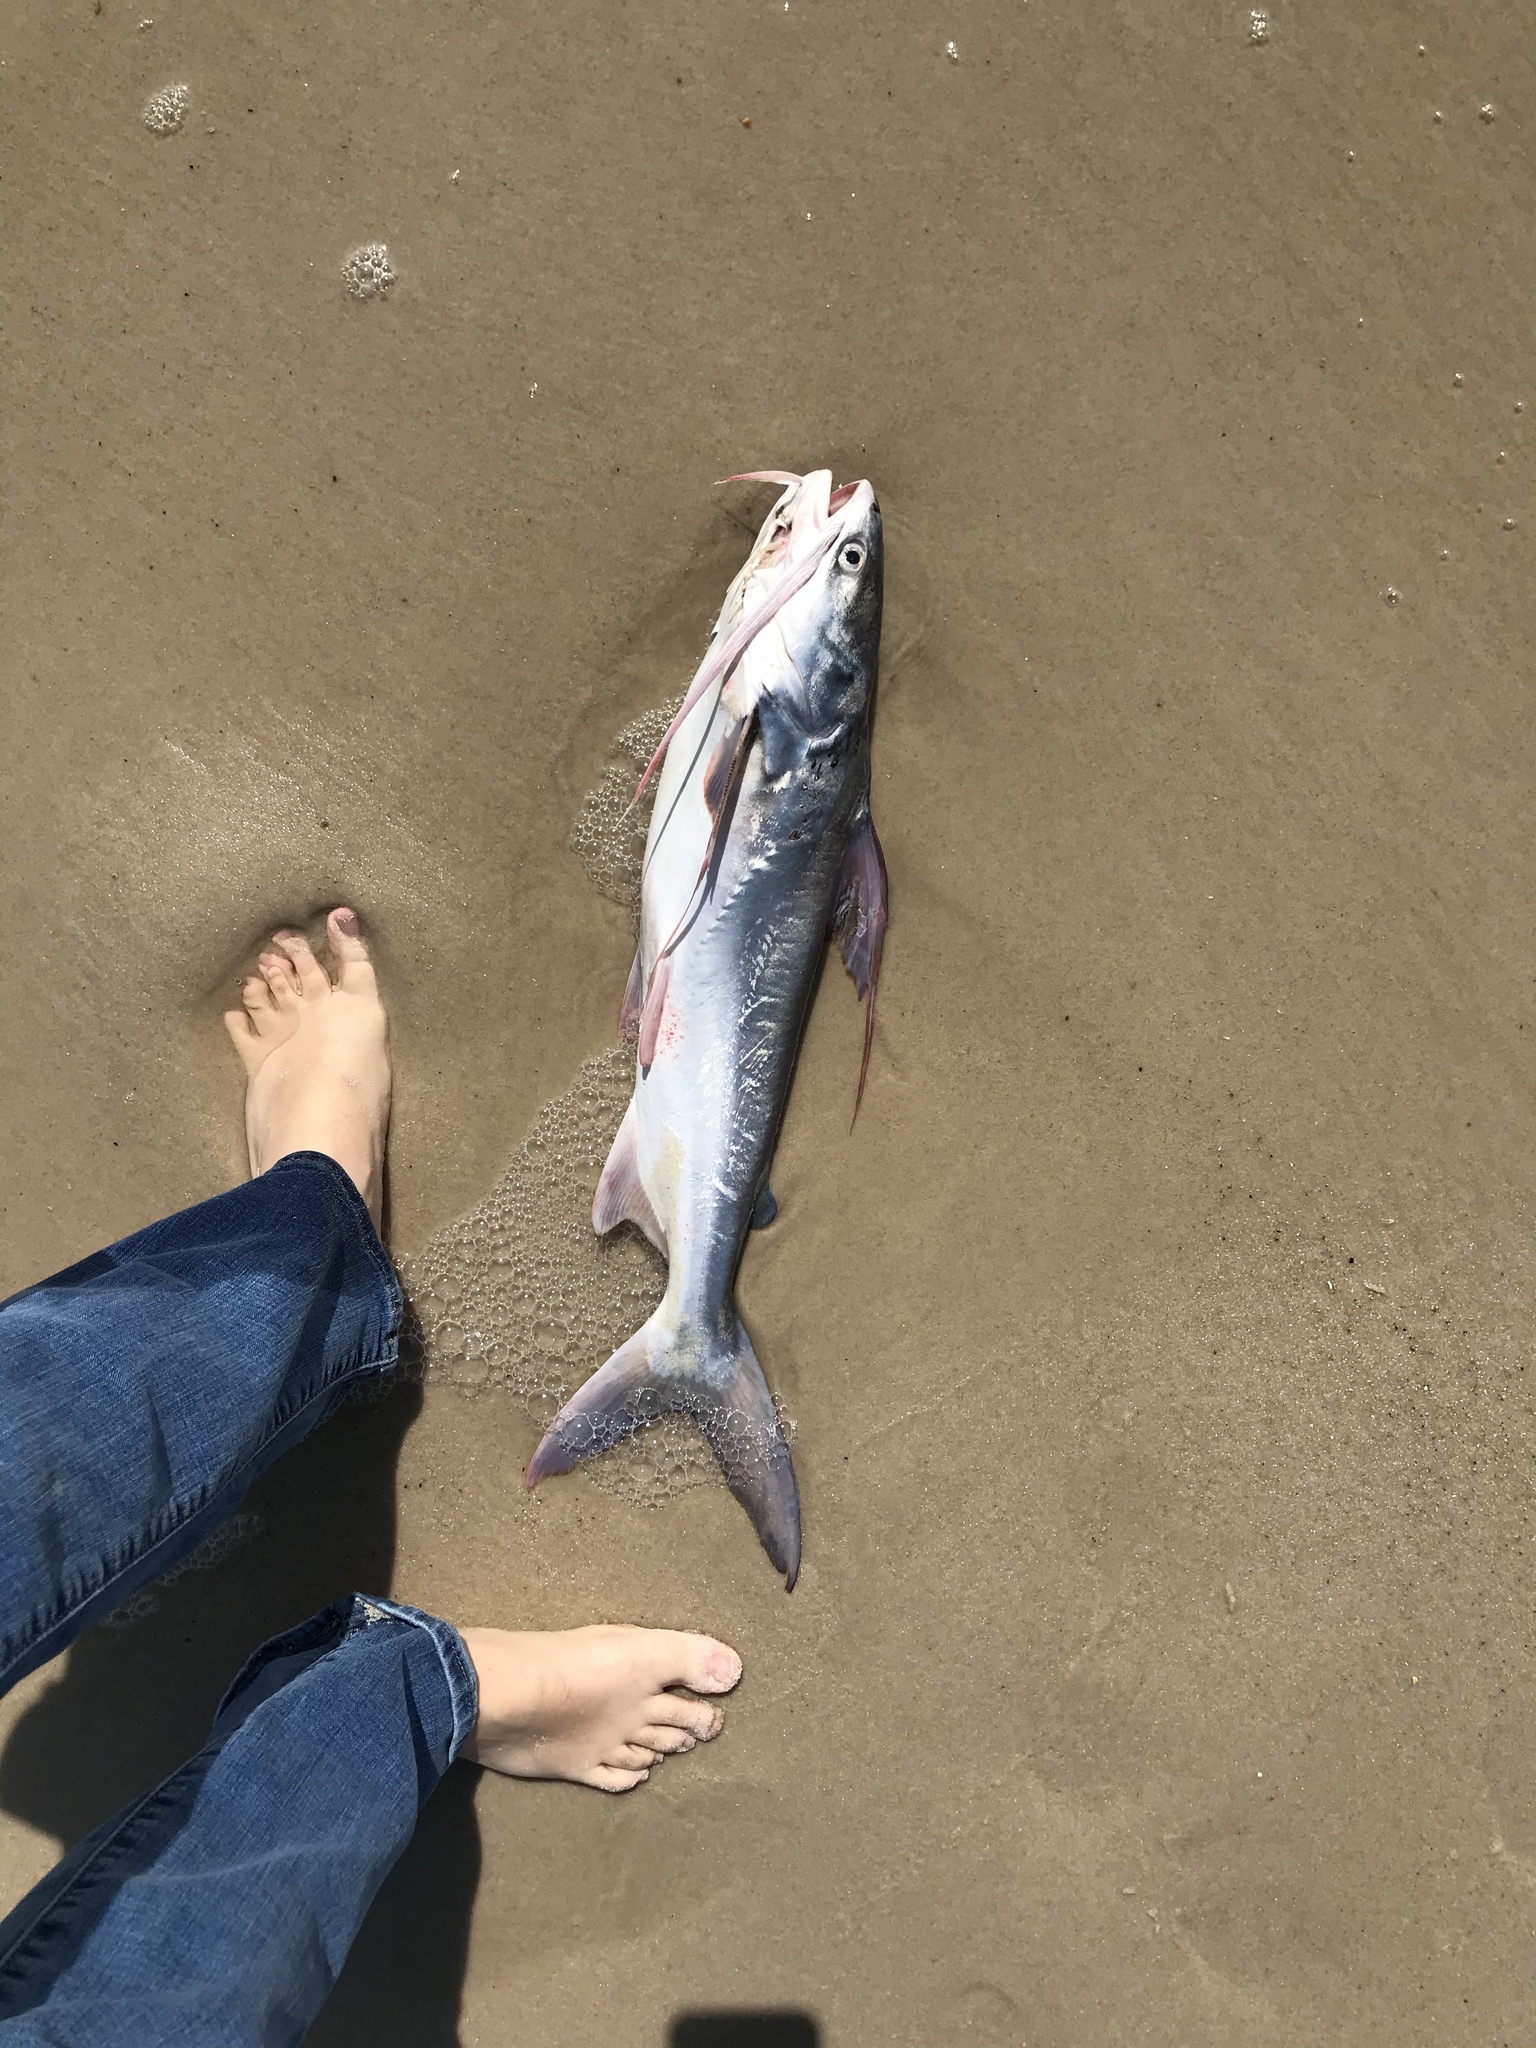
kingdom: Animalia
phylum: Chordata
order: Siluriformes
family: Ariidae
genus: Bagre
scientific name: Bagre marinus
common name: Gafftopsail sea catfish
